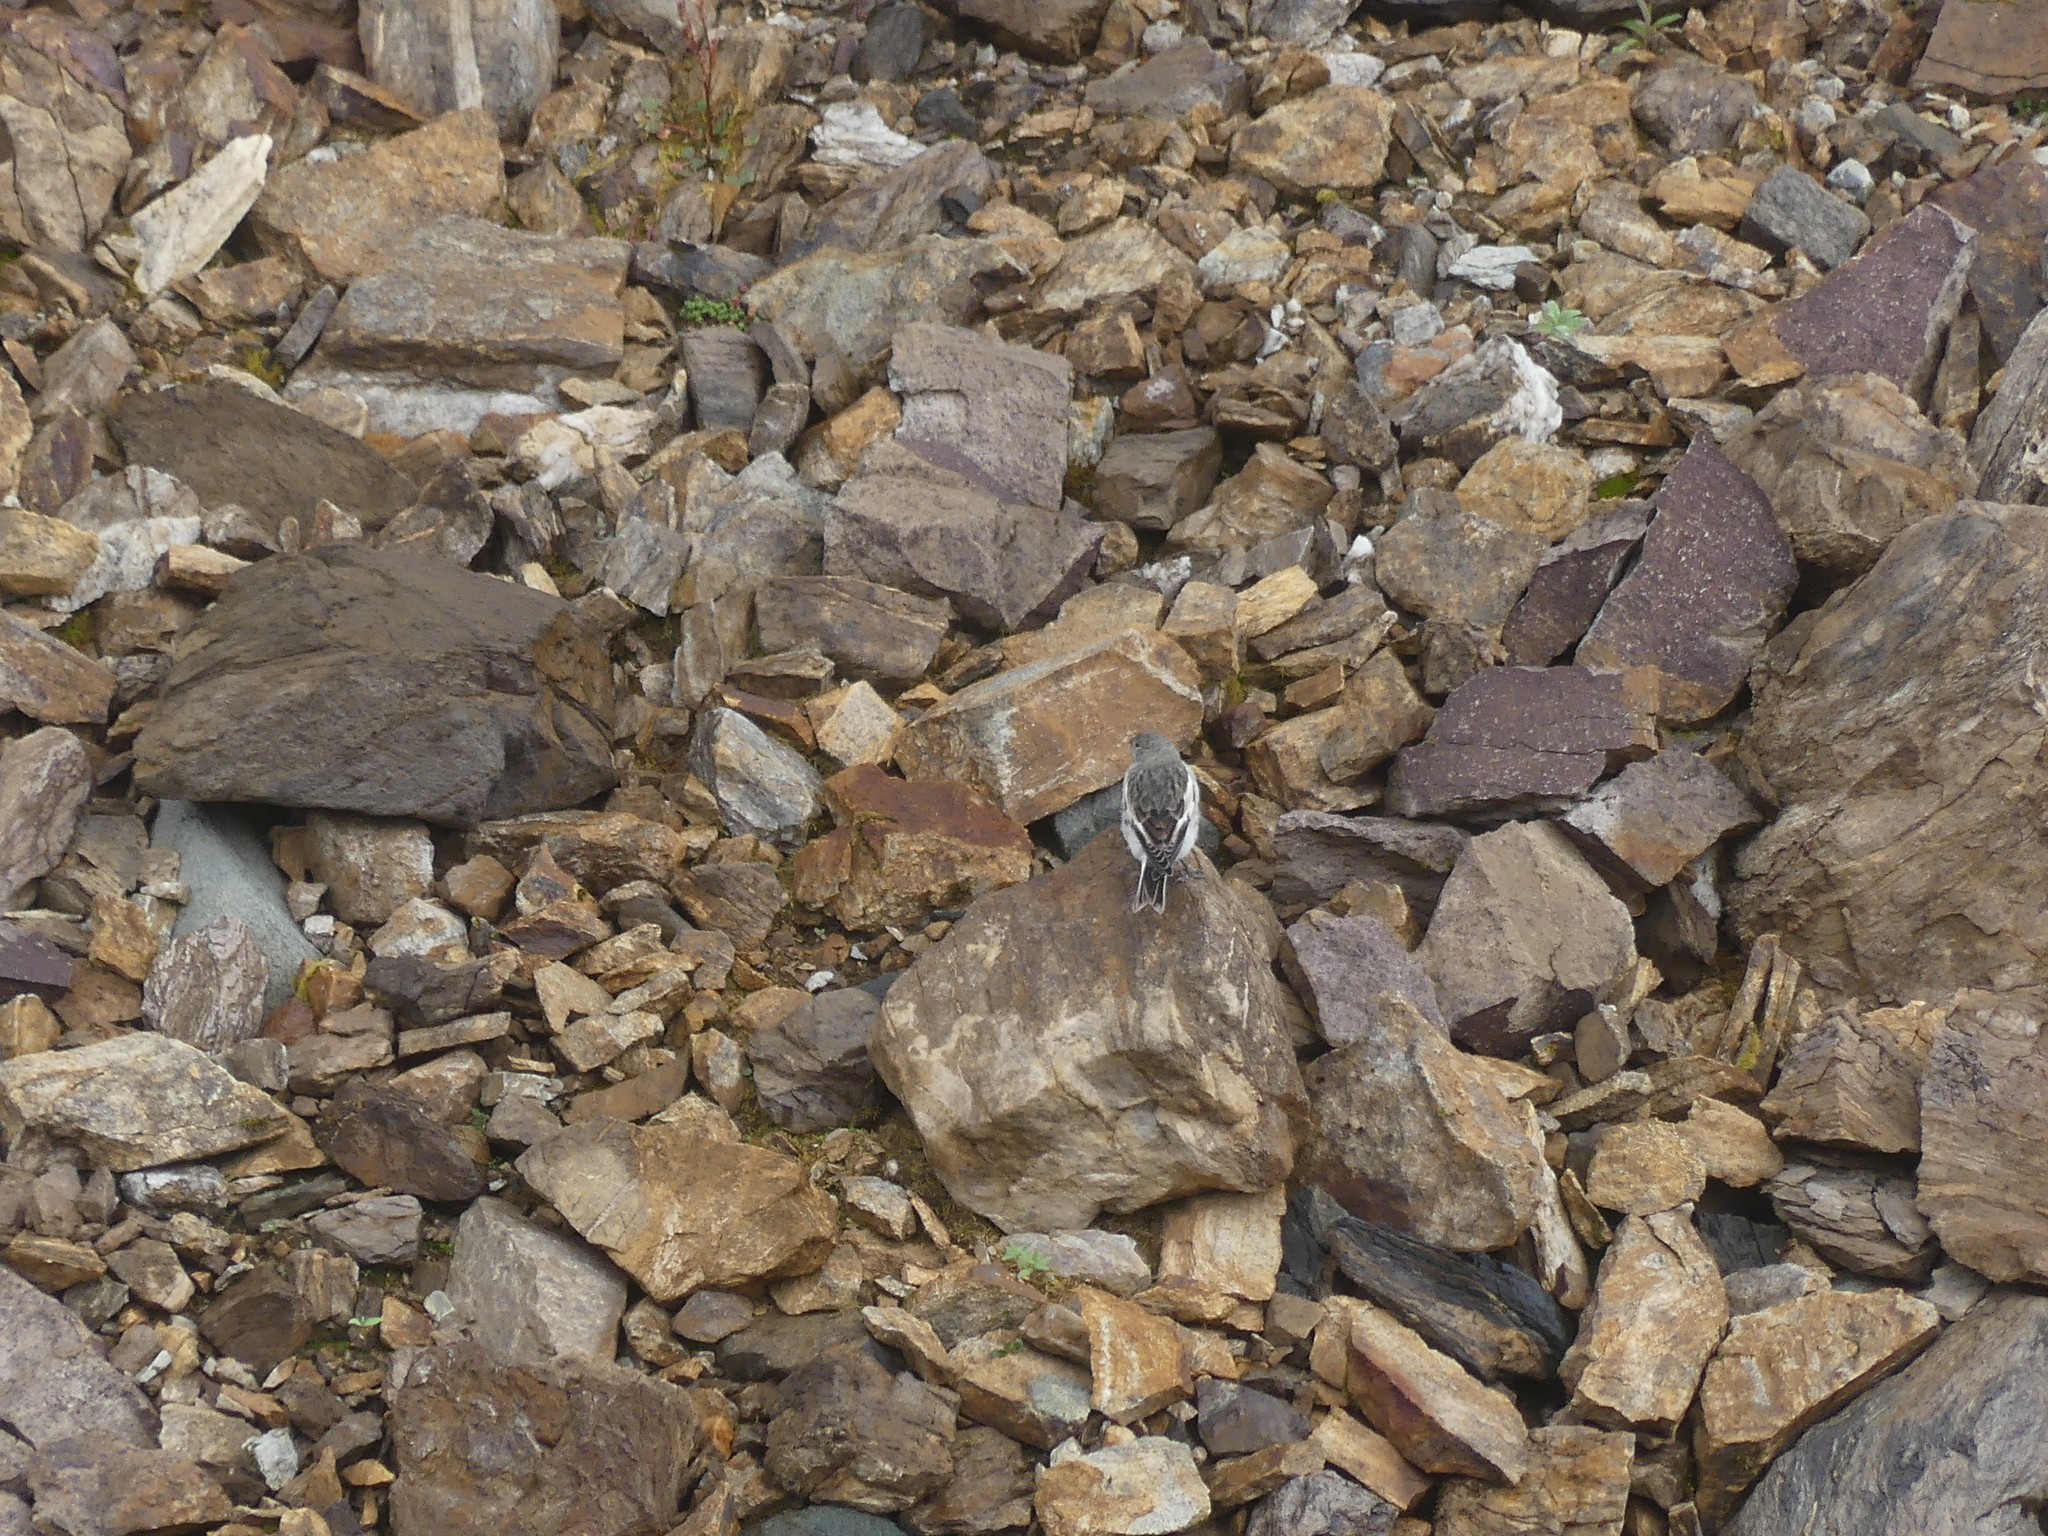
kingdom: Animalia
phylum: Chordata
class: Aves
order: Passeriformes
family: Calcariidae
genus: Plectrophenax
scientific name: Plectrophenax nivalis
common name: Snow bunting
